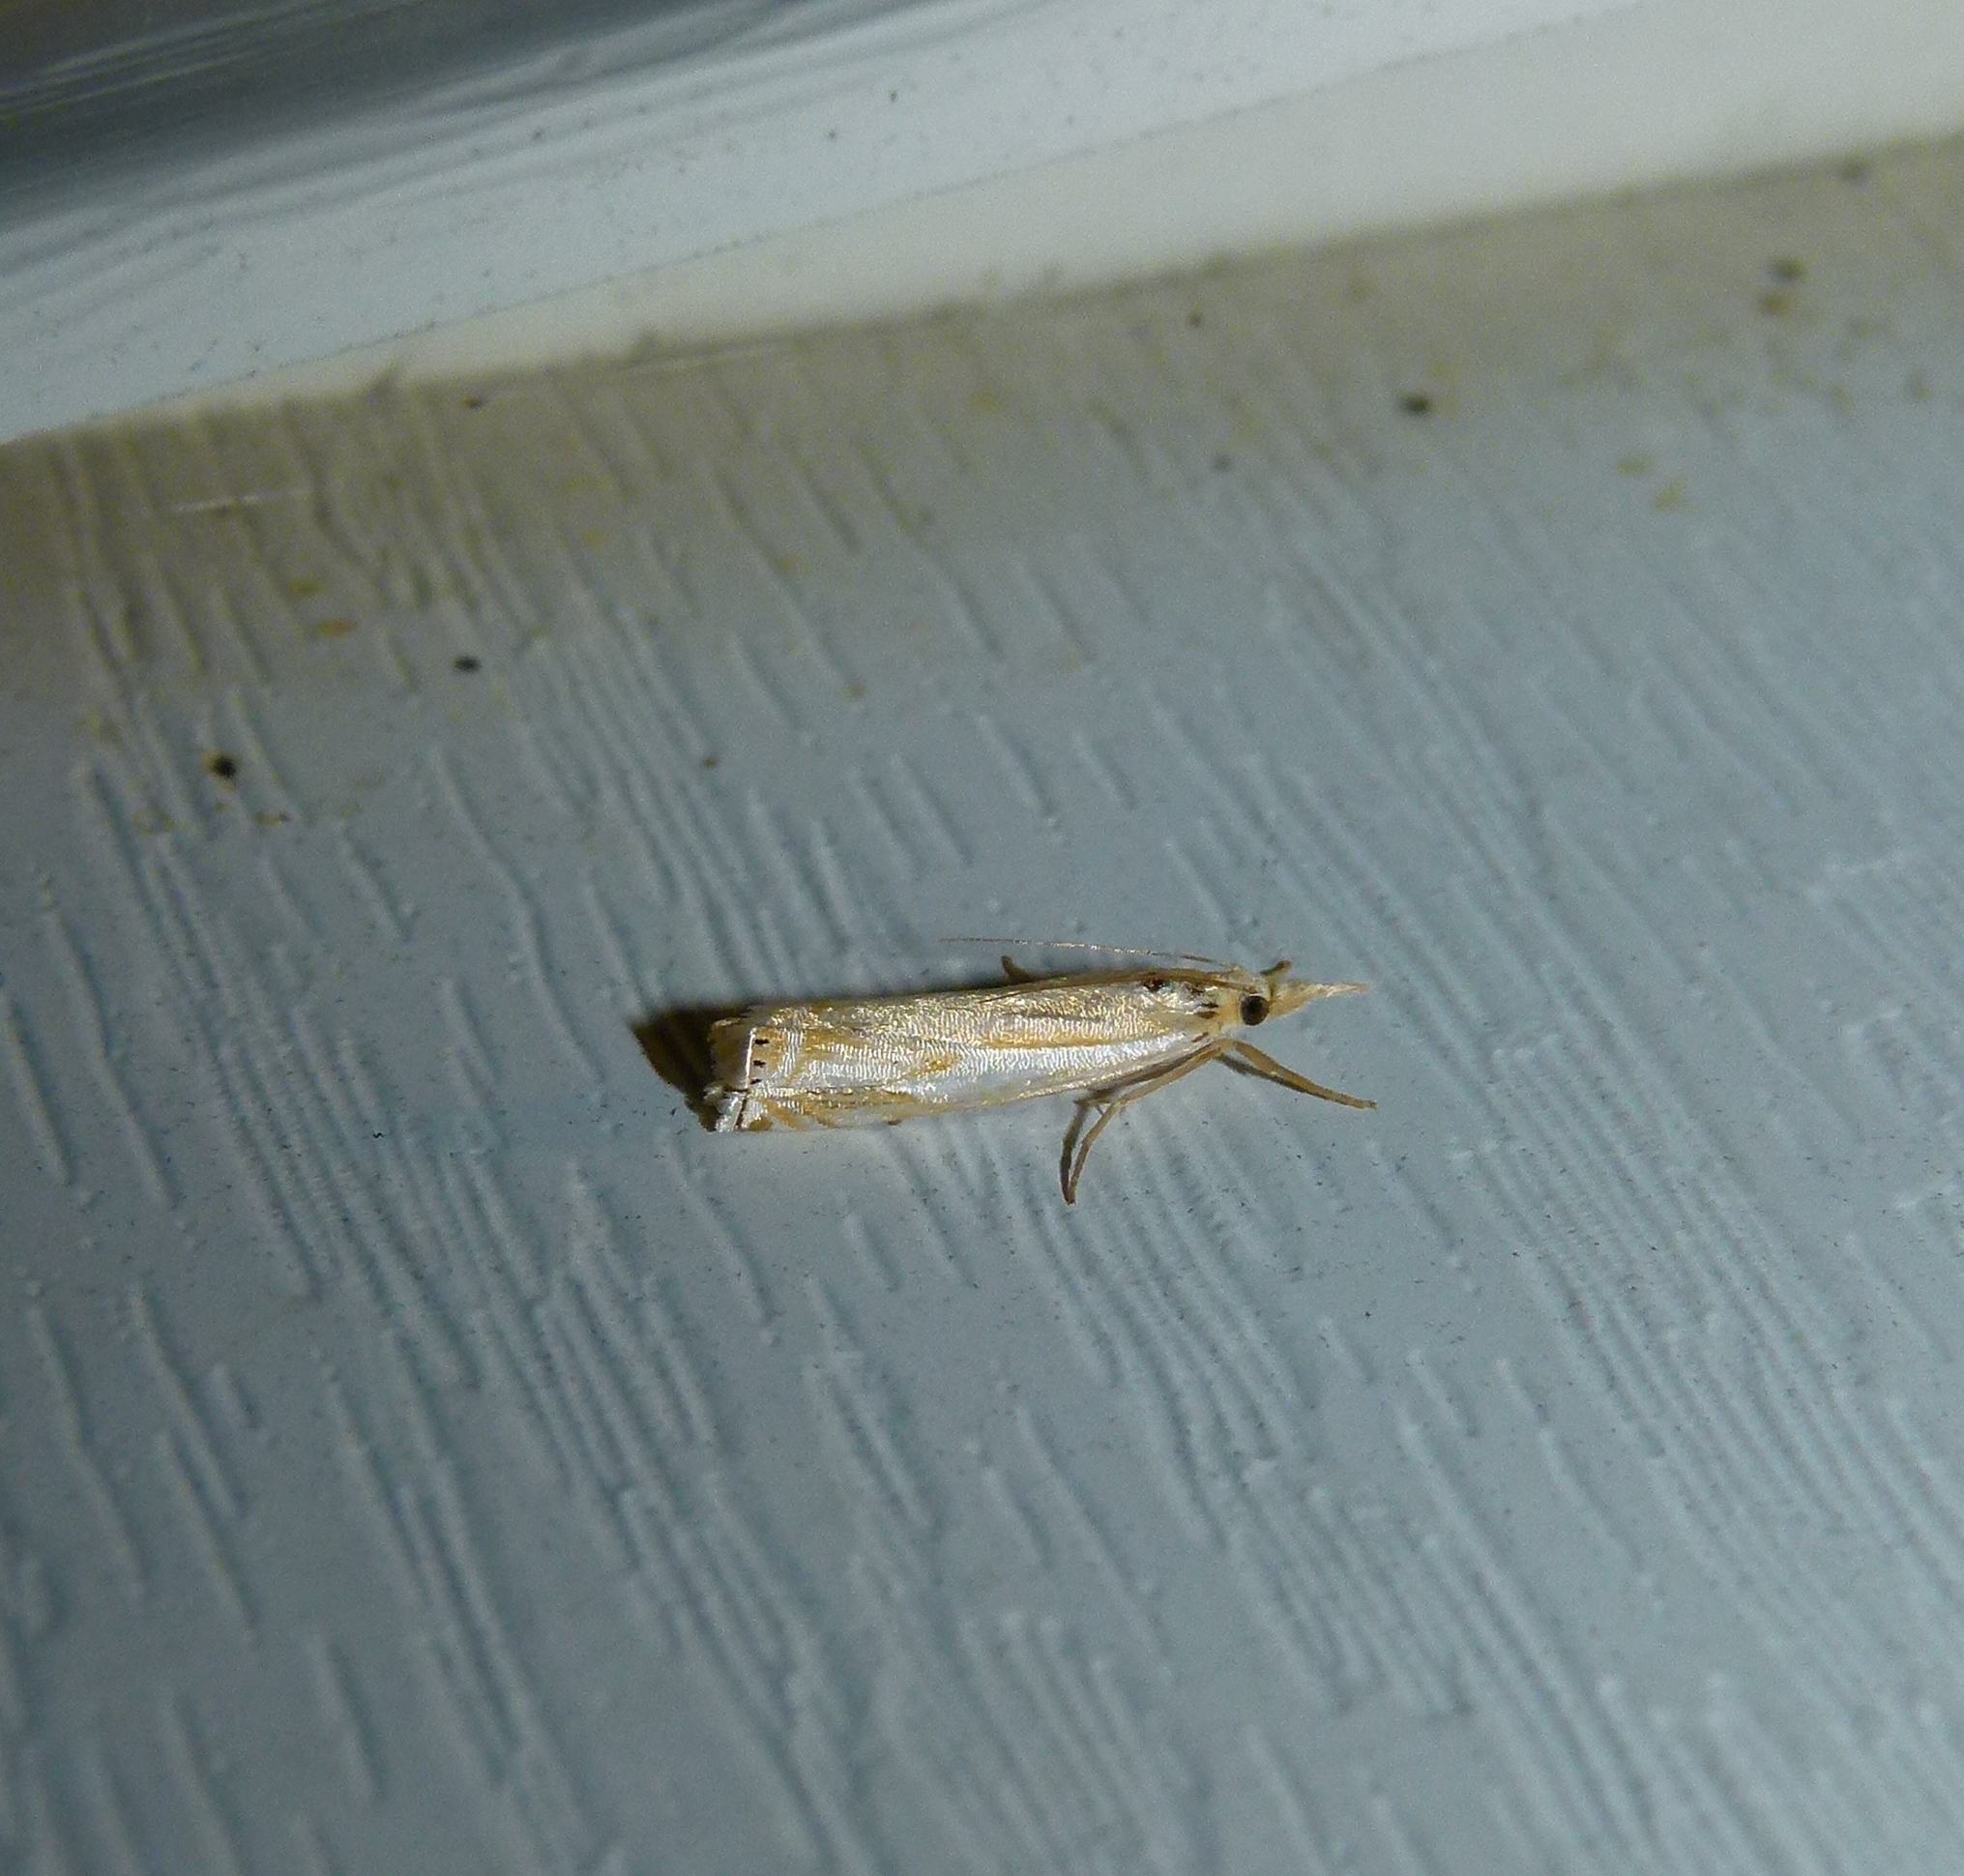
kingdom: Animalia
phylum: Arthropoda
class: Insecta
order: Lepidoptera
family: Crambidae
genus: Crambus
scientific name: Crambus agitatellus
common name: Double-banded grass-veneer
